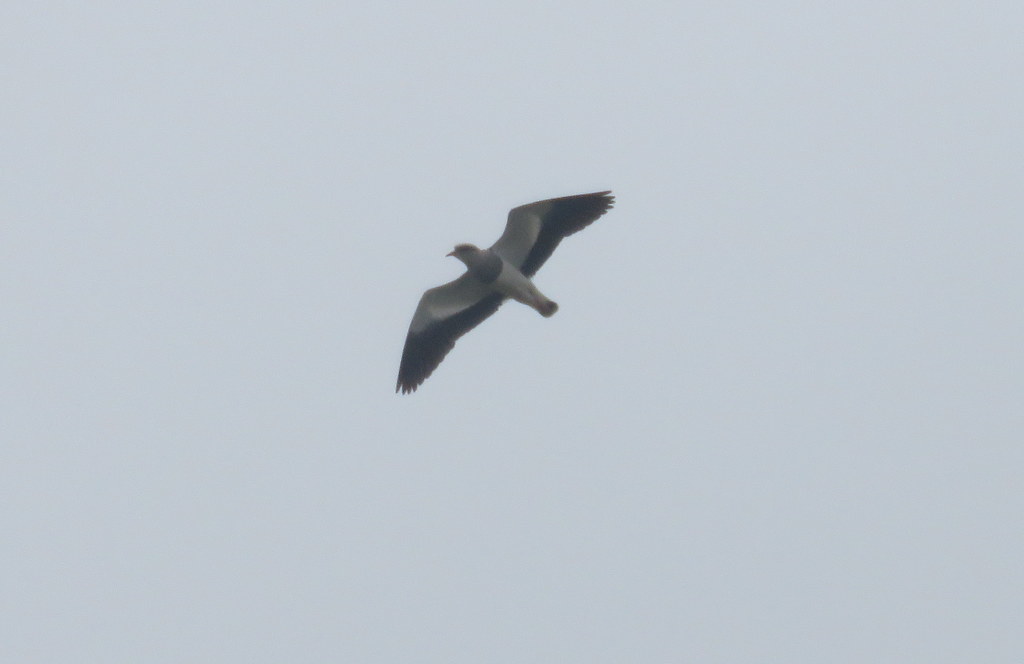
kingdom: Animalia
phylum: Chordata
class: Aves
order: Charadriiformes
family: Charadriidae
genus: Vanellus
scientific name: Vanellus resplendens
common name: Andean lapwing
